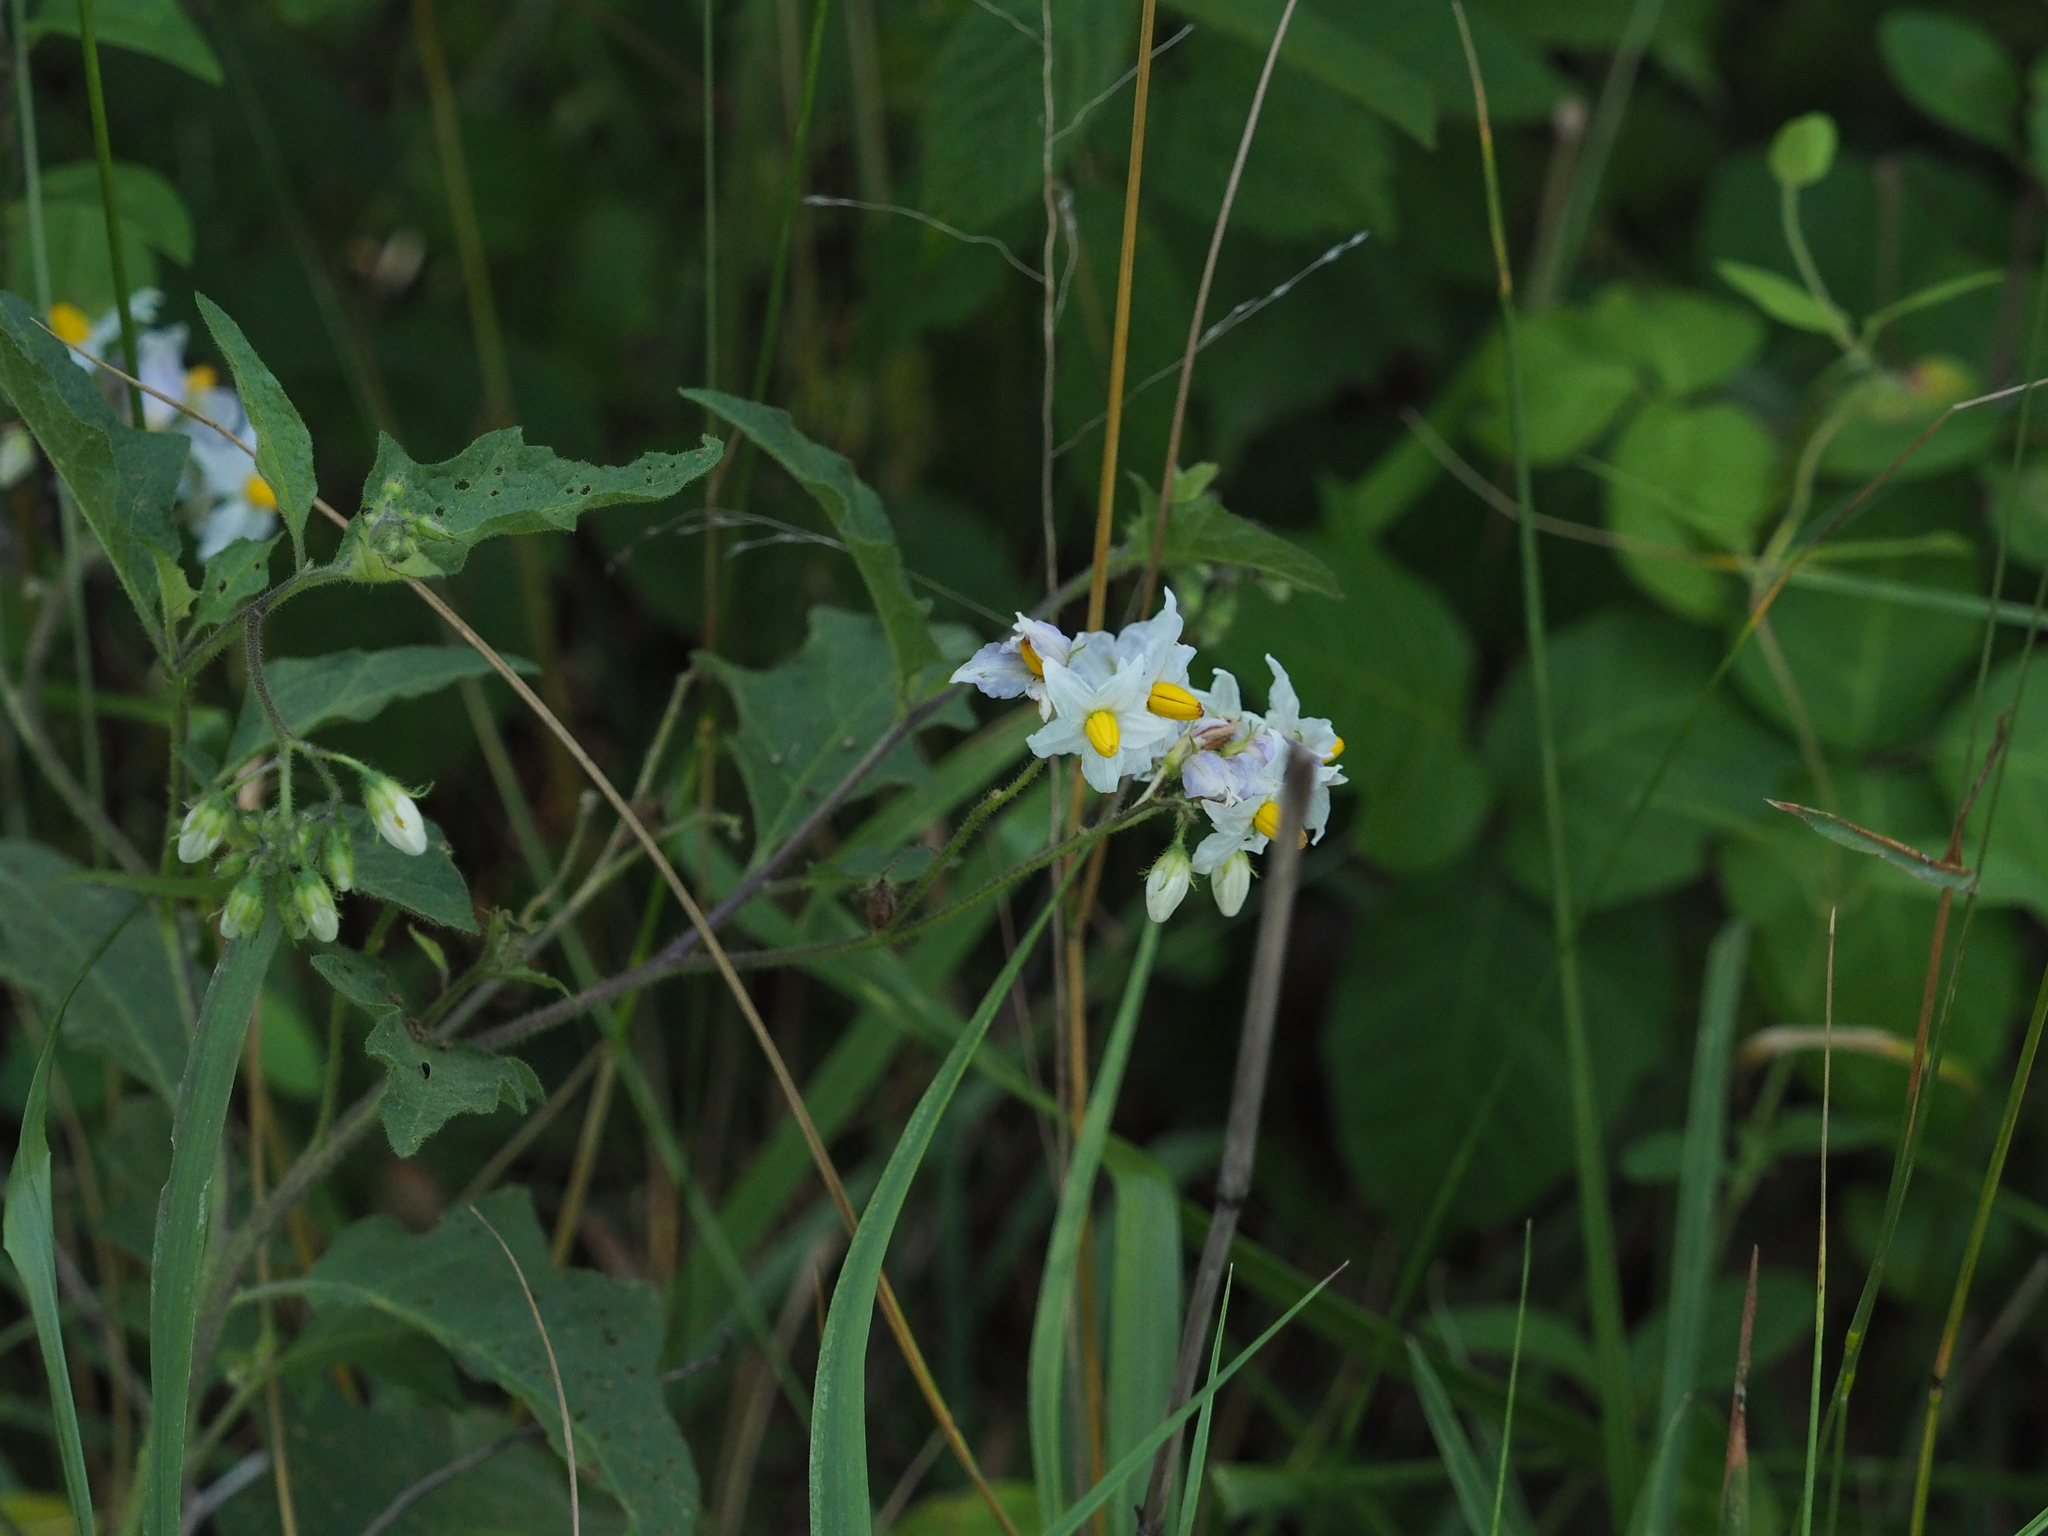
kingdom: Plantae
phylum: Tracheophyta
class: Magnoliopsida
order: Solanales
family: Solanaceae
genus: Solanum
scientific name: Solanum carolinense
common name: Horse-nettle
